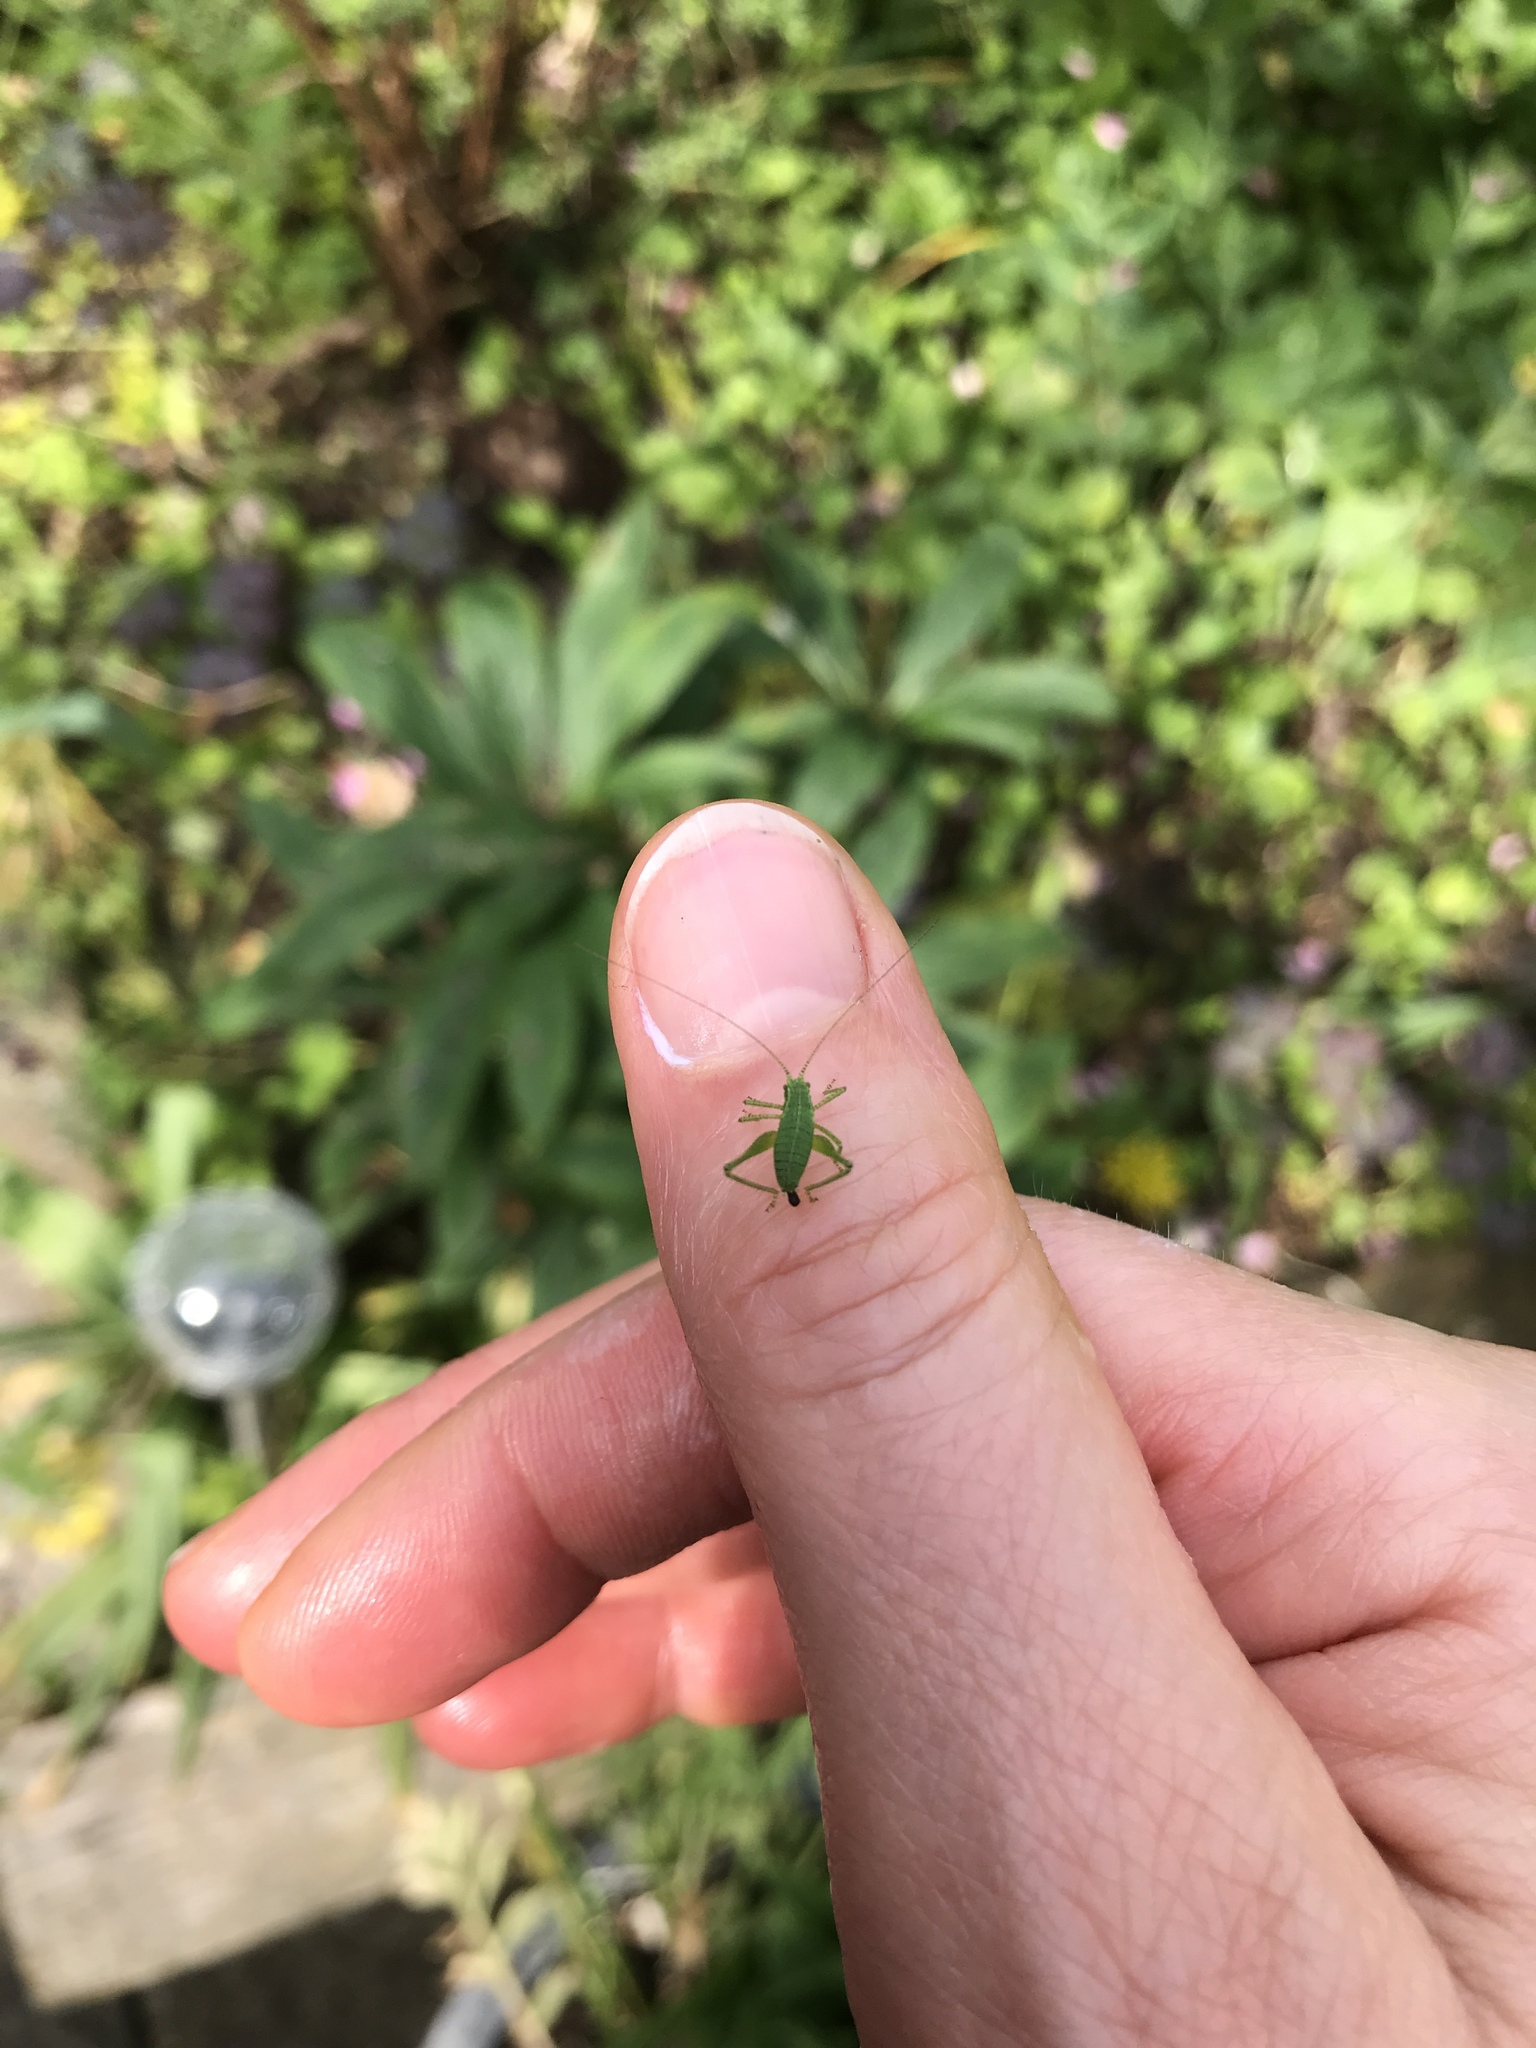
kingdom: Animalia
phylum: Arthropoda
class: Insecta
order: Orthoptera
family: Tettigoniidae
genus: Leptophyes
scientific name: Leptophyes punctatissima
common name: Speckled bush-cricket
